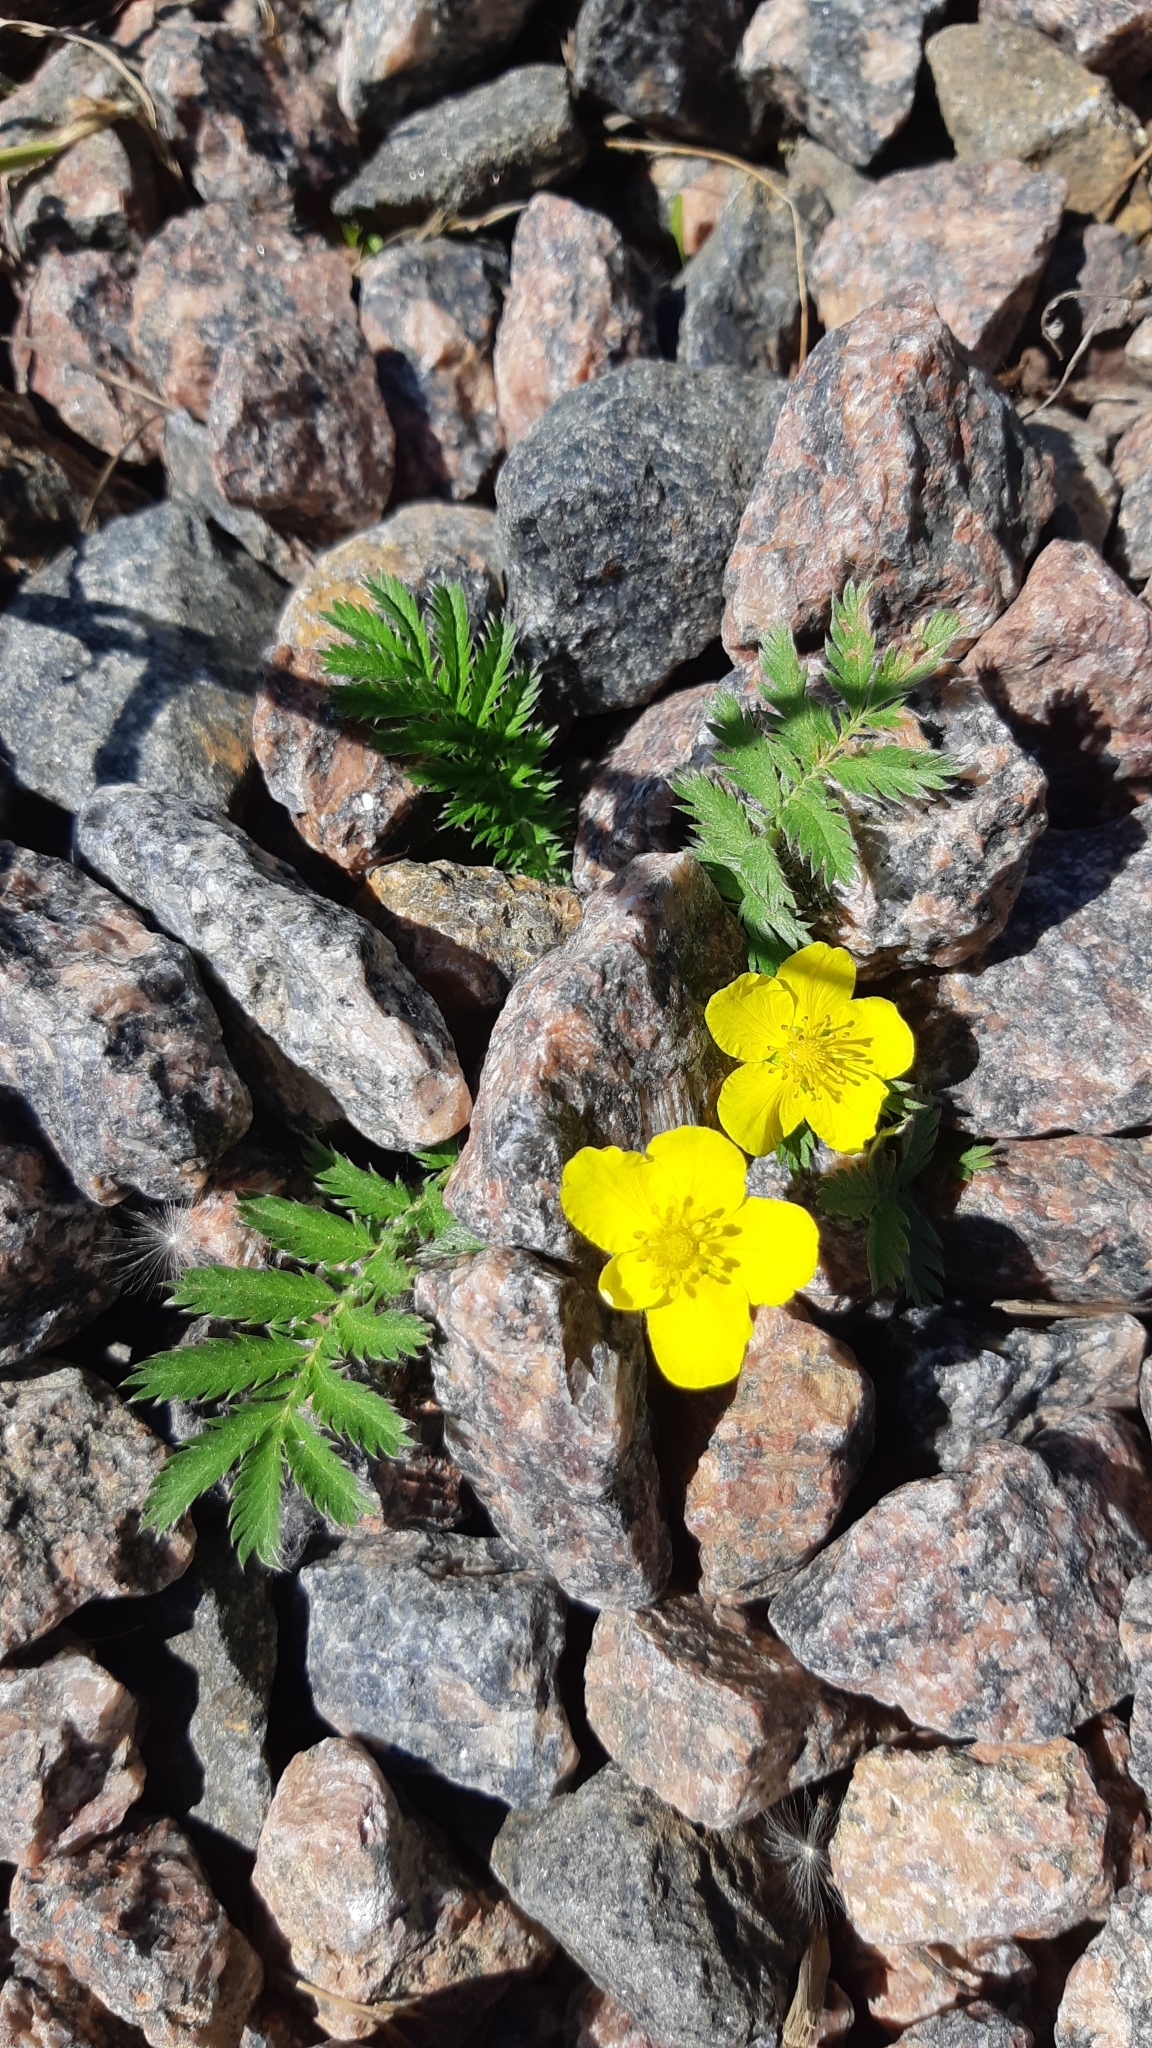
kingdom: Plantae
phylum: Tracheophyta
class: Magnoliopsida
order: Rosales
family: Rosaceae
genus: Argentina
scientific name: Argentina anserina
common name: Common silverweed
